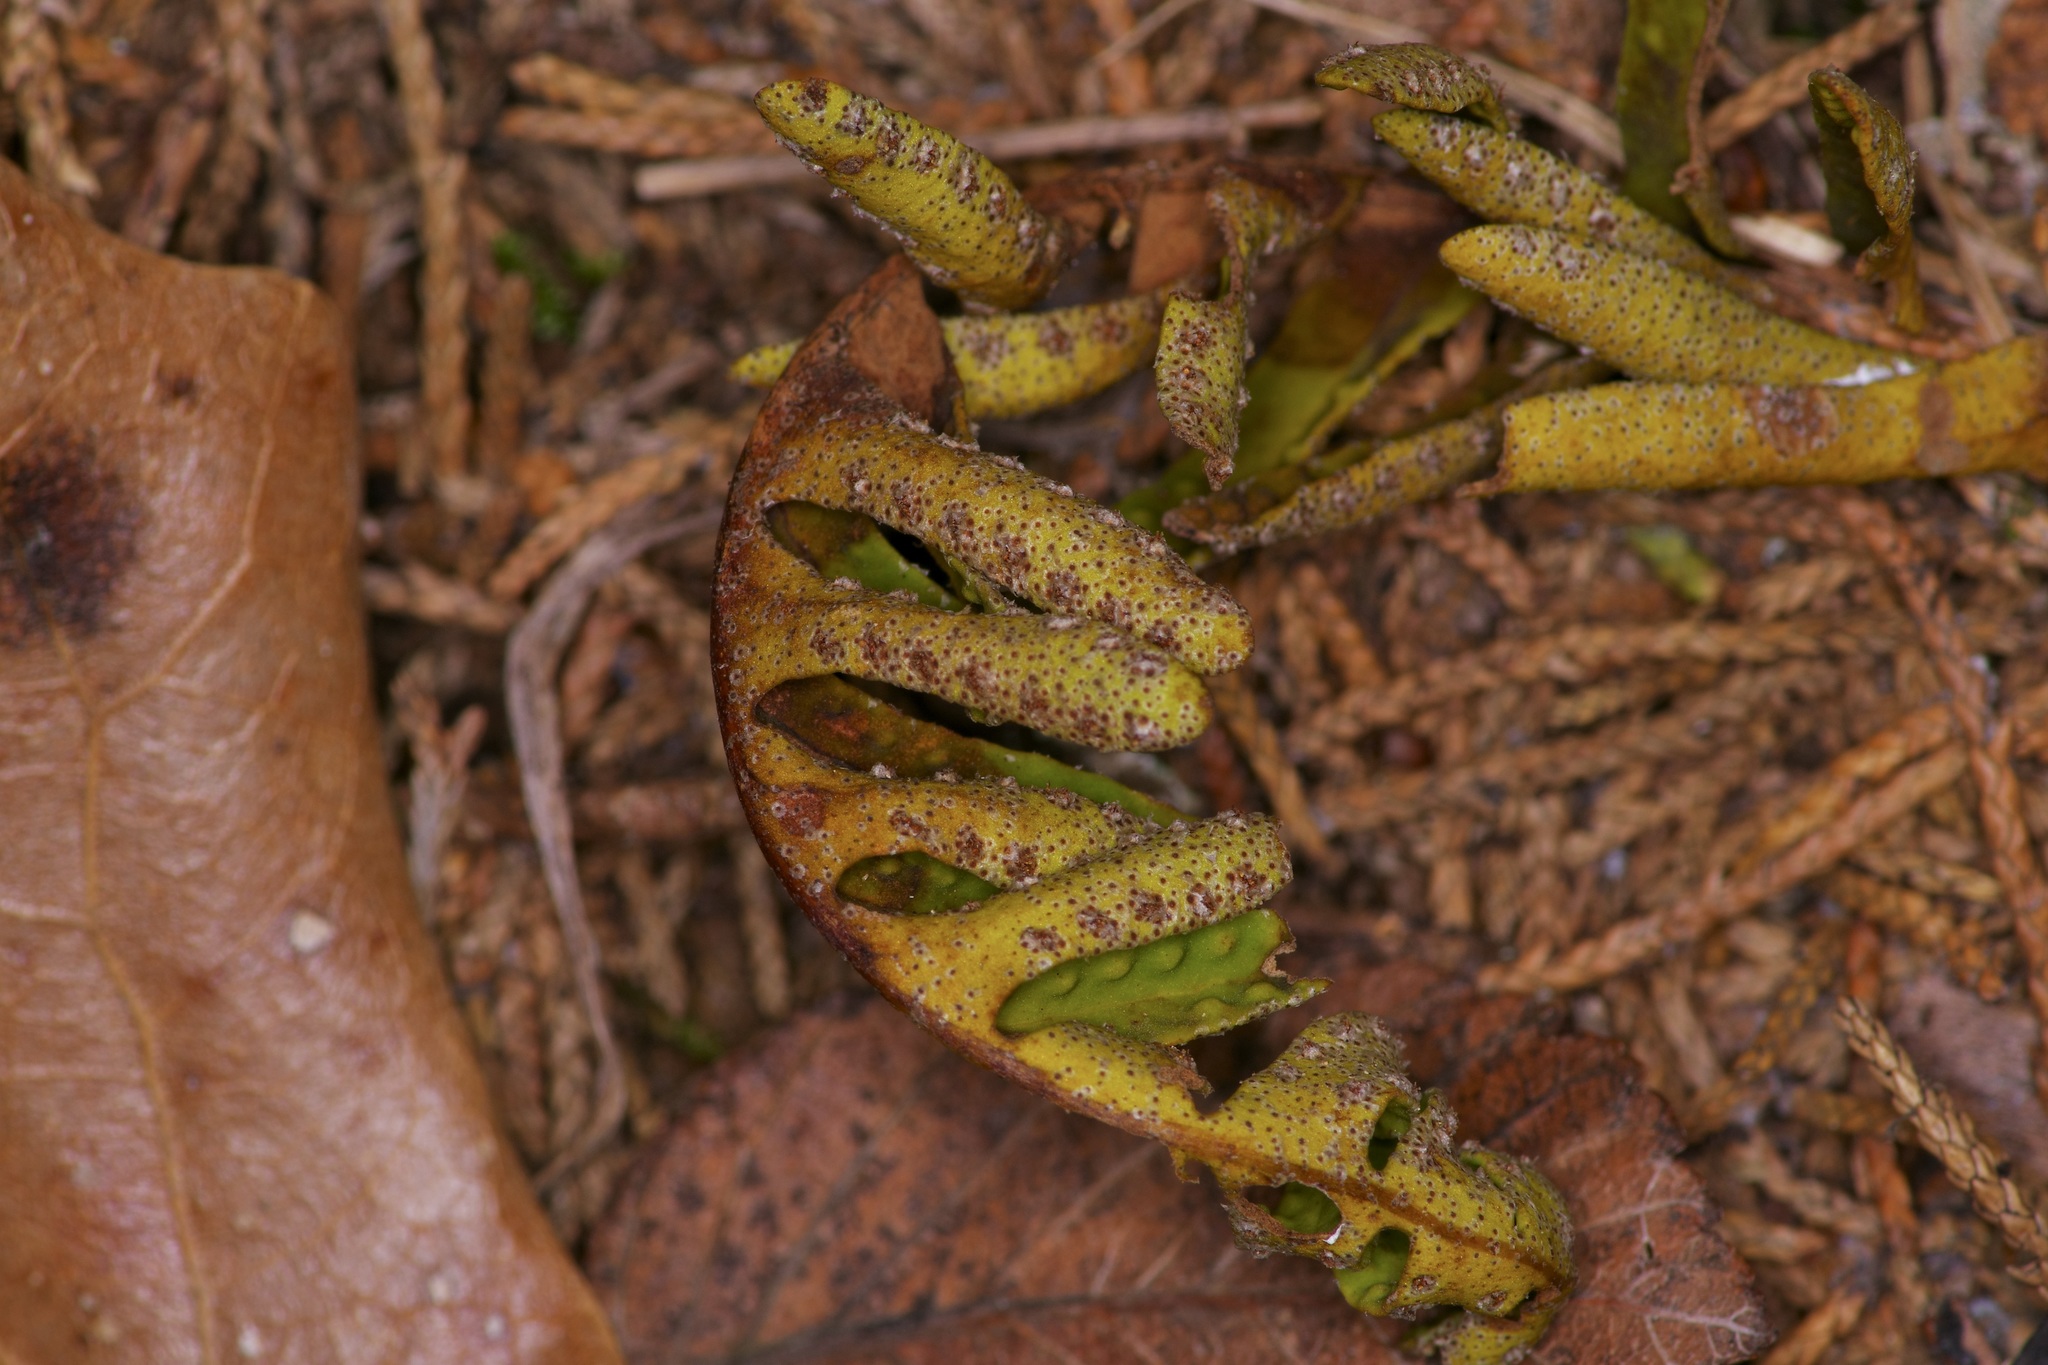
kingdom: Plantae
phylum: Tracheophyta
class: Polypodiopsida
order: Polypodiales
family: Polypodiaceae
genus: Pleopeltis
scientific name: Pleopeltis michauxiana
